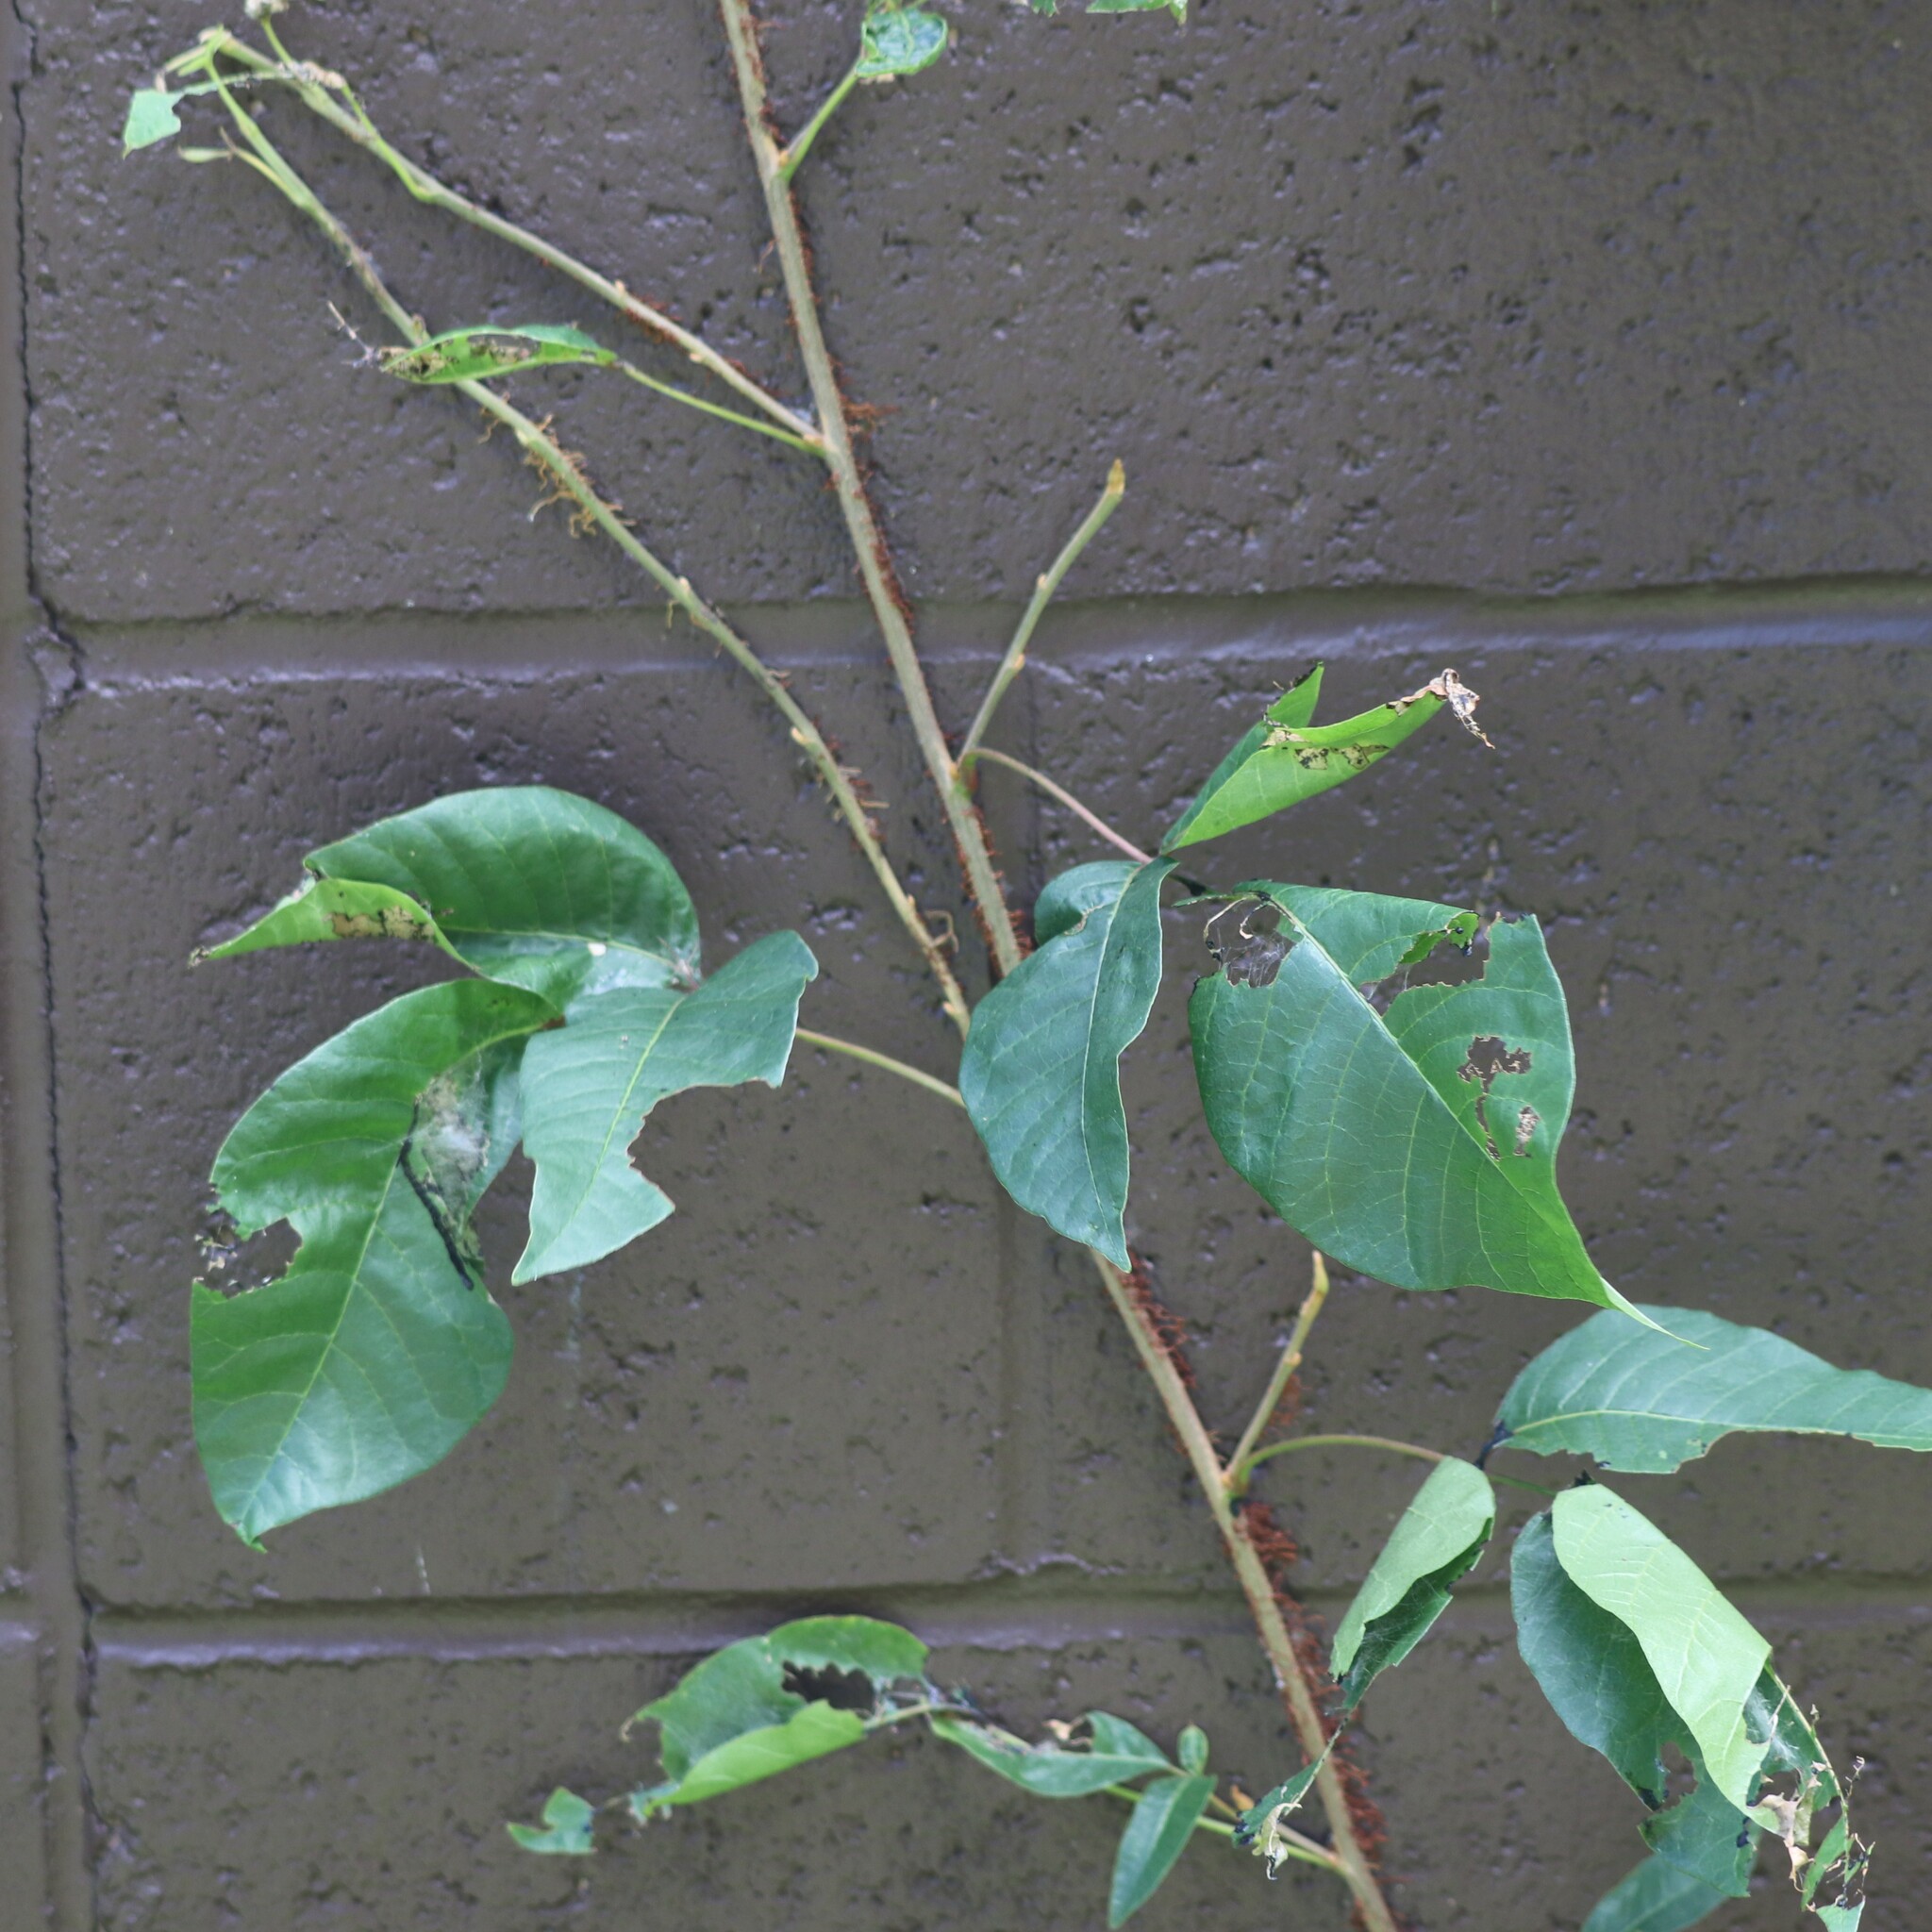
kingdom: Plantae
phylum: Tracheophyta
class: Magnoliopsida
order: Sapindales
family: Anacardiaceae
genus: Toxicodendron
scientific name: Toxicodendron radicans
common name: Poison ivy
